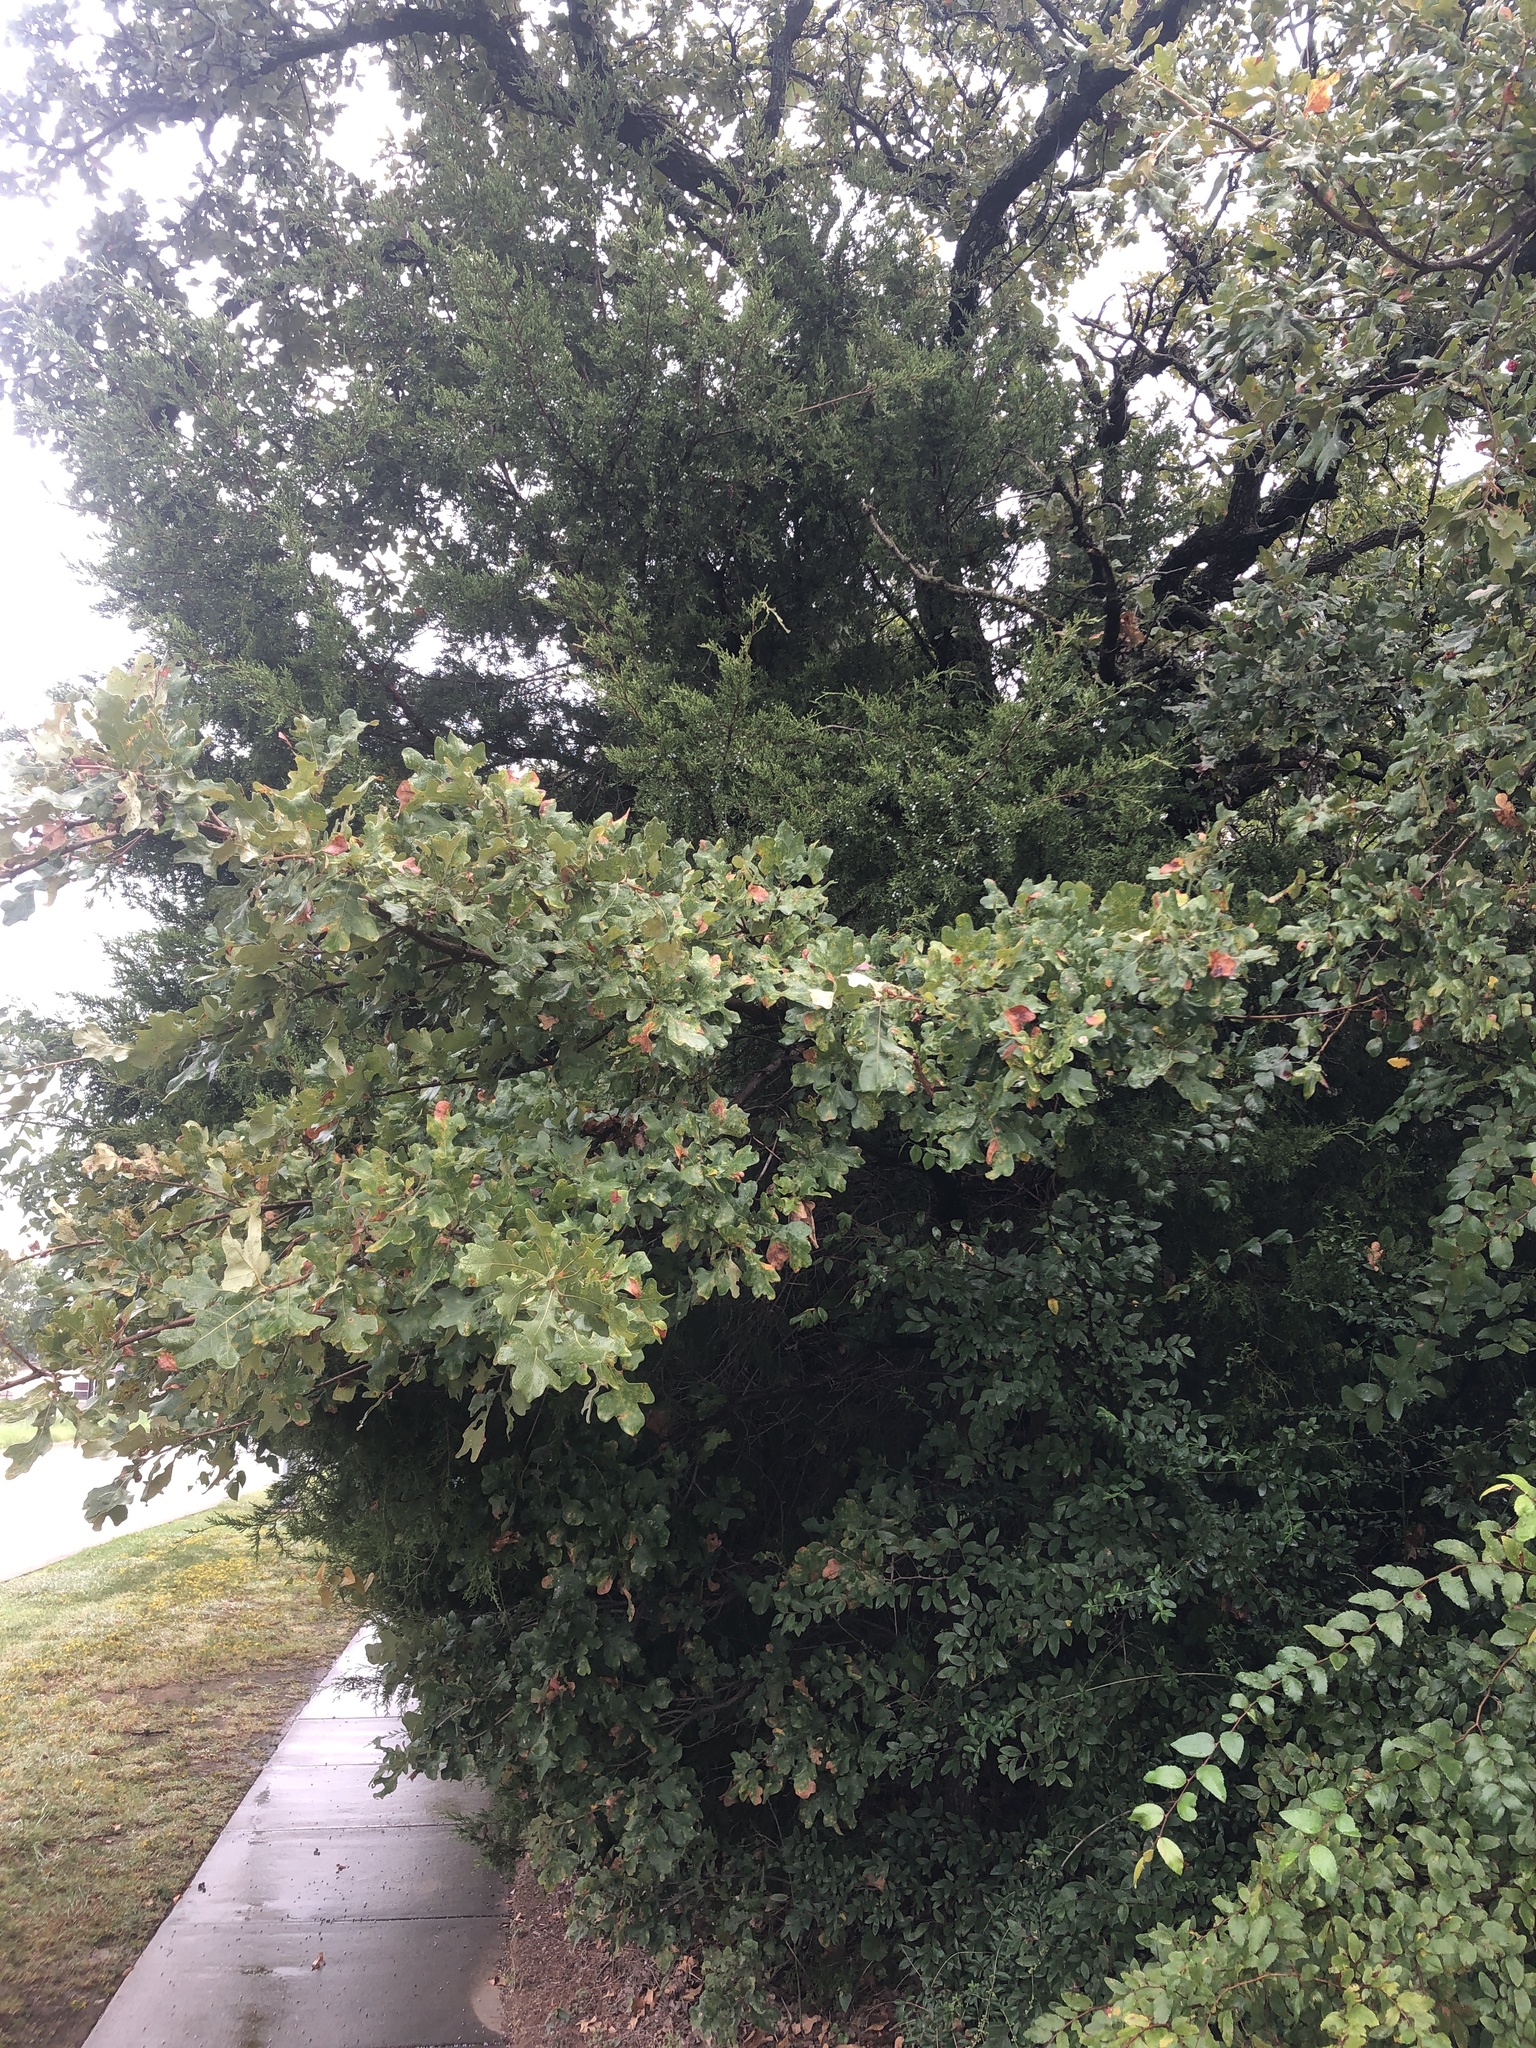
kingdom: Plantae
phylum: Tracheophyta
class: Pinopsida
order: Pinales
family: Cupressaceae
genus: Juniperus
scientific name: Juniperus virginiana
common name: Red juniper
